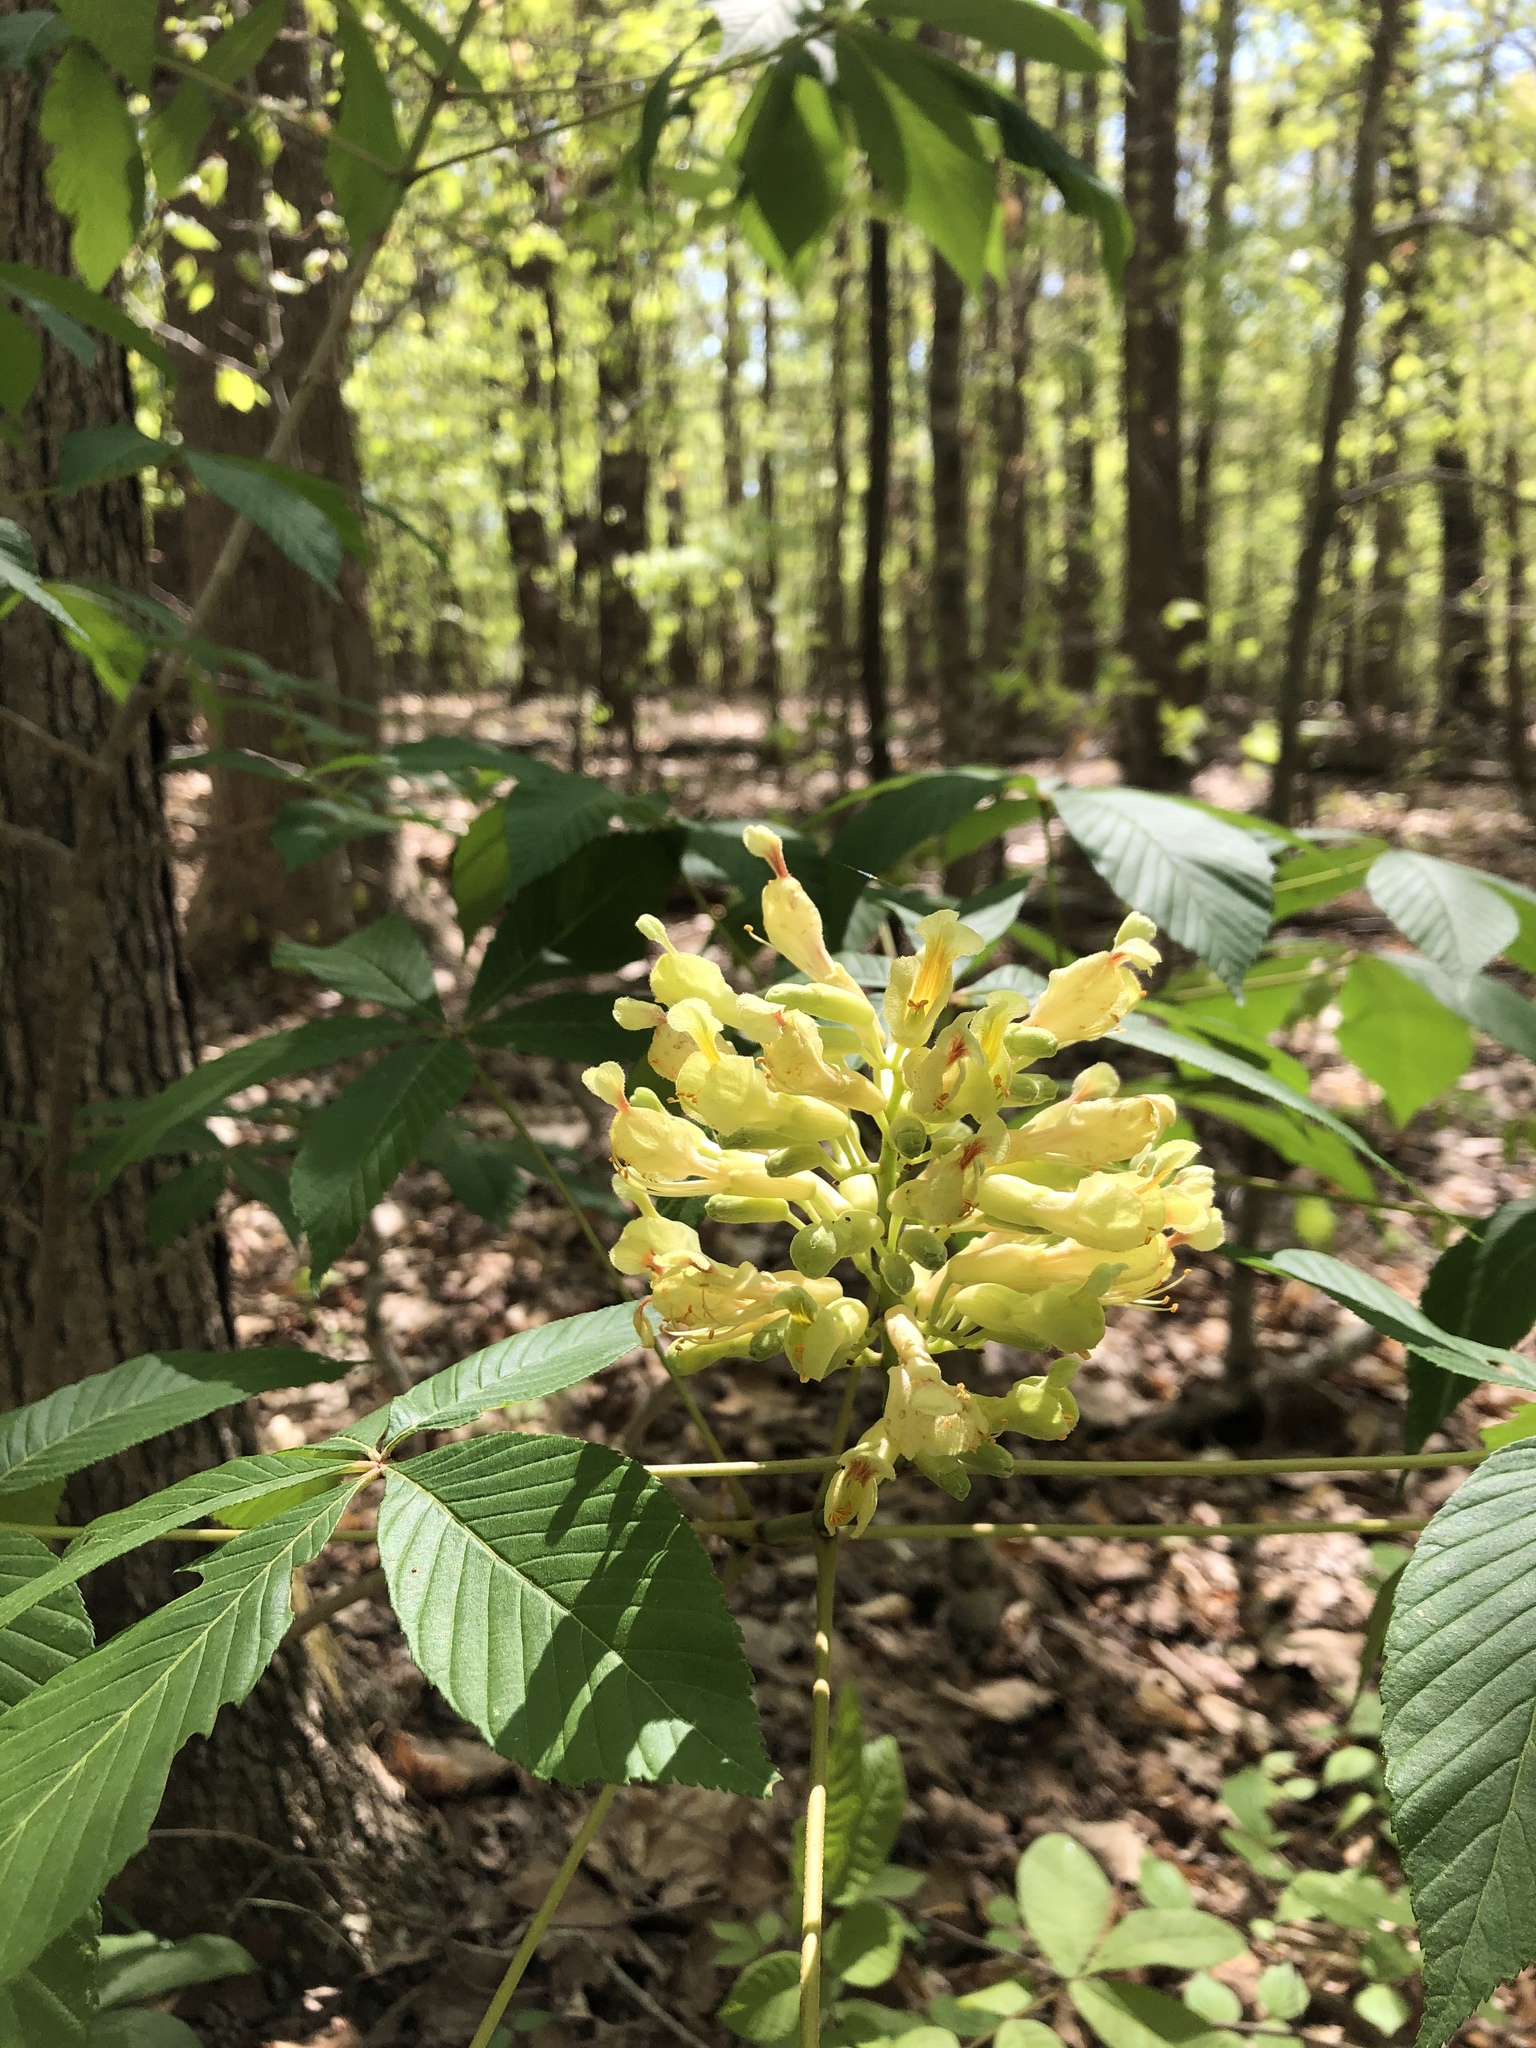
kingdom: Plantae
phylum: Tracheophyta
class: Magnoliopsida
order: Sapindales
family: Sapindaceae
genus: Aesculus
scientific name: Aesculus sylvatica
